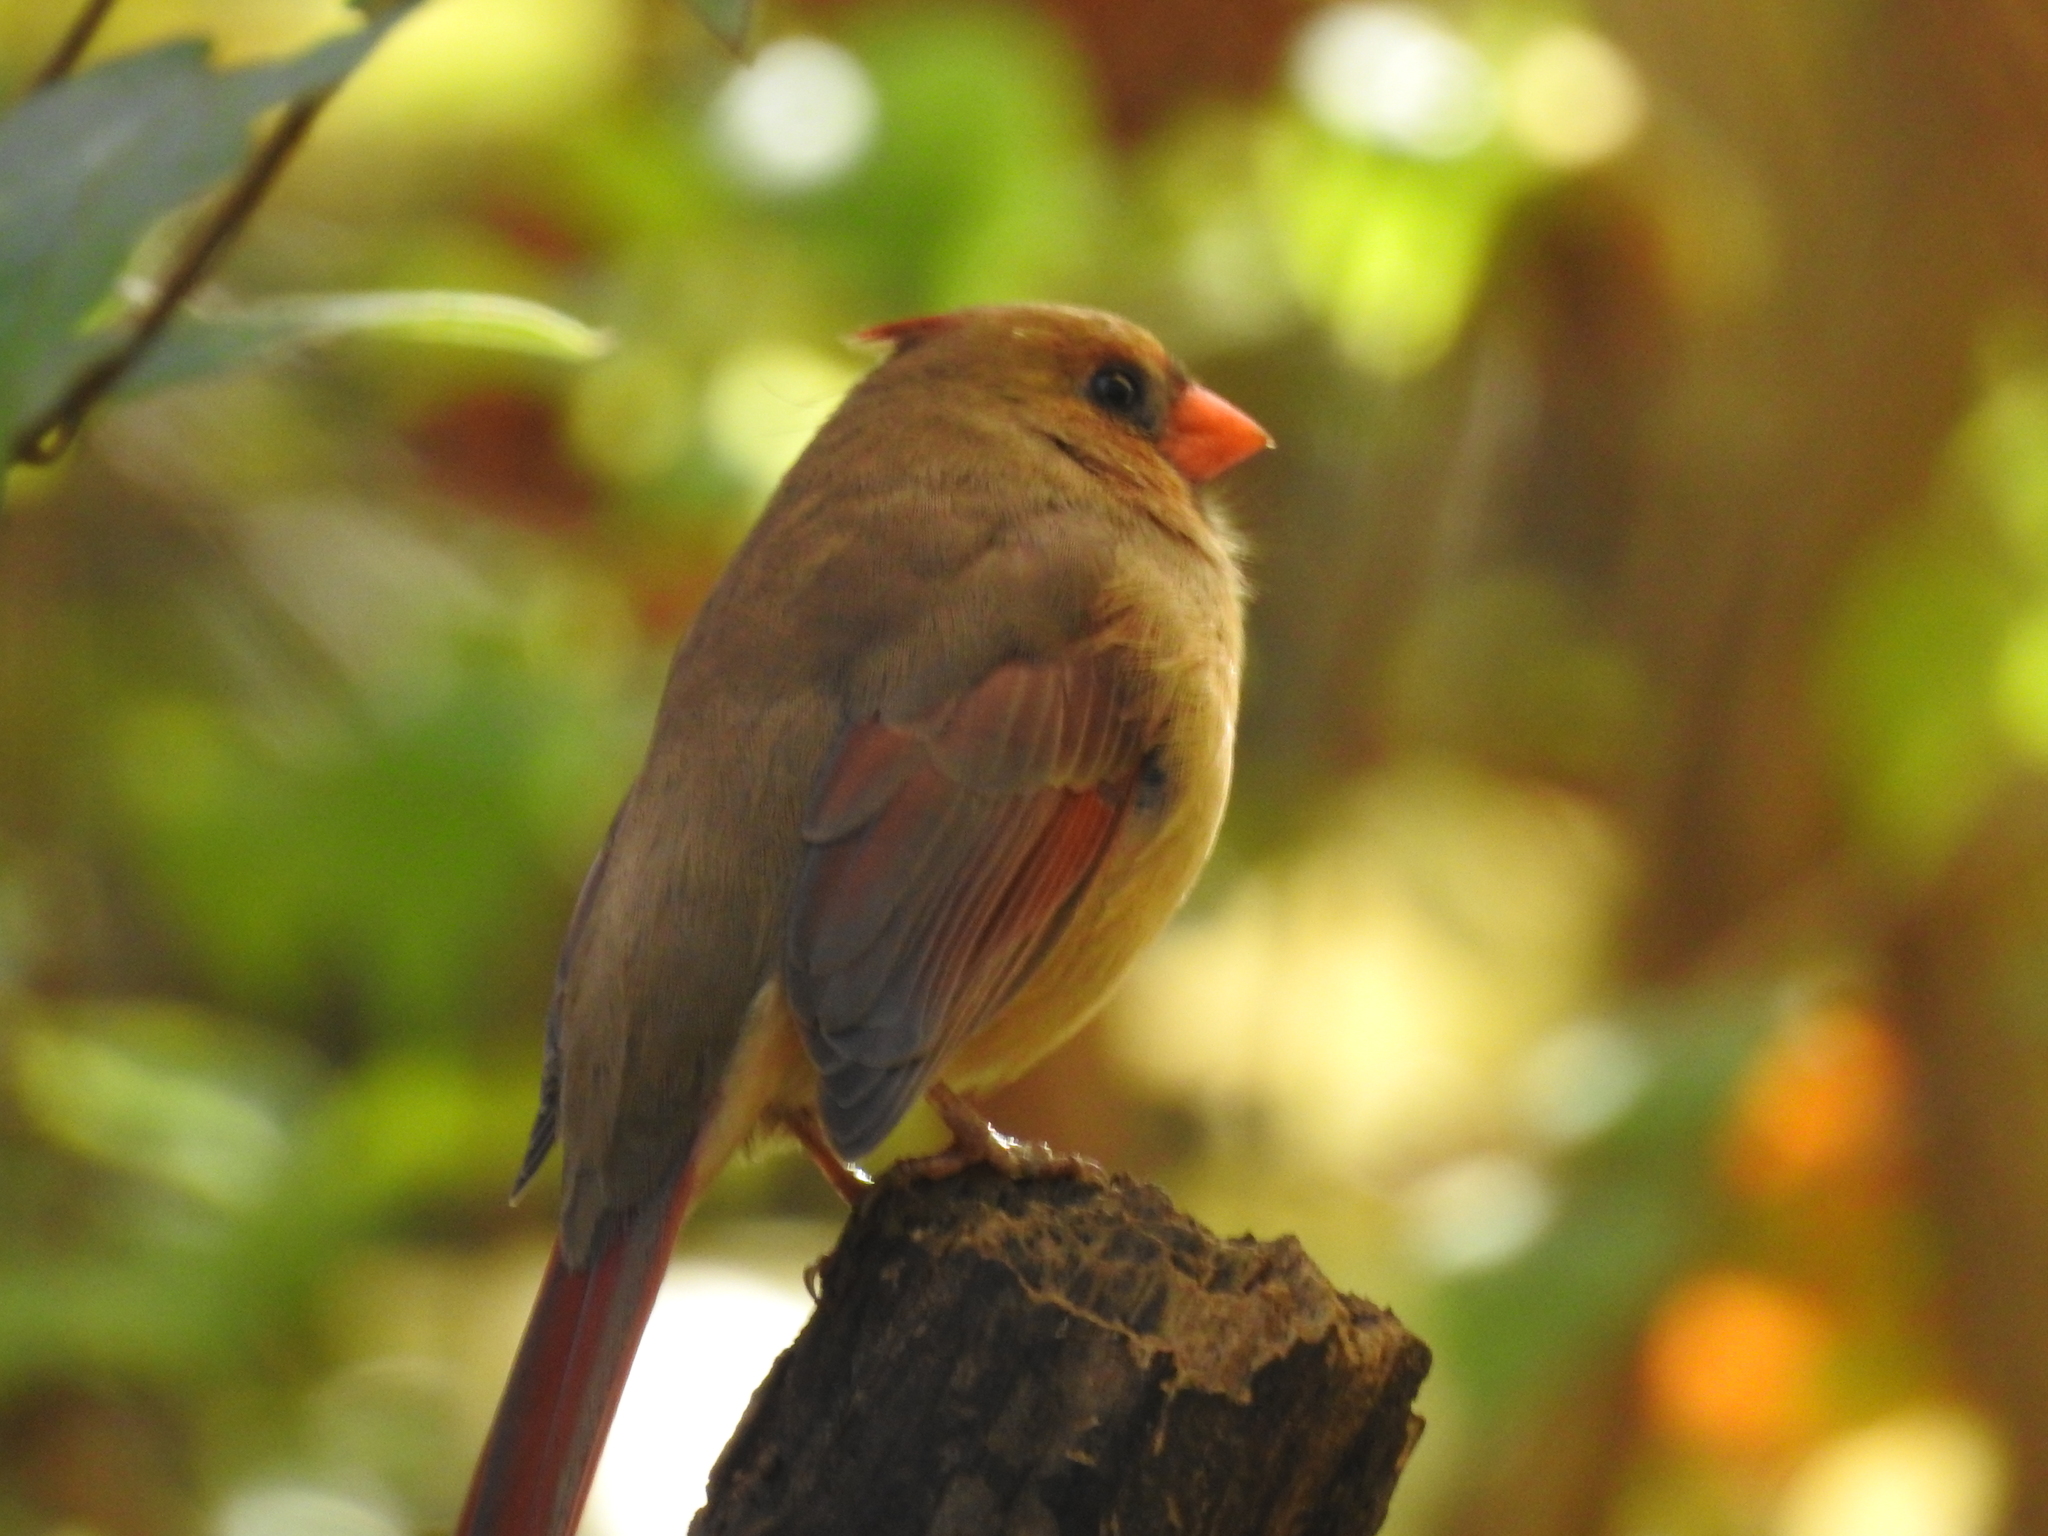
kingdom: Animalia
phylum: Chordata
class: Aves
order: Passeriformes
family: Cardinalidae
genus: Cardinalis
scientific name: Cardinalis cardinalis
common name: Northern cardinal
